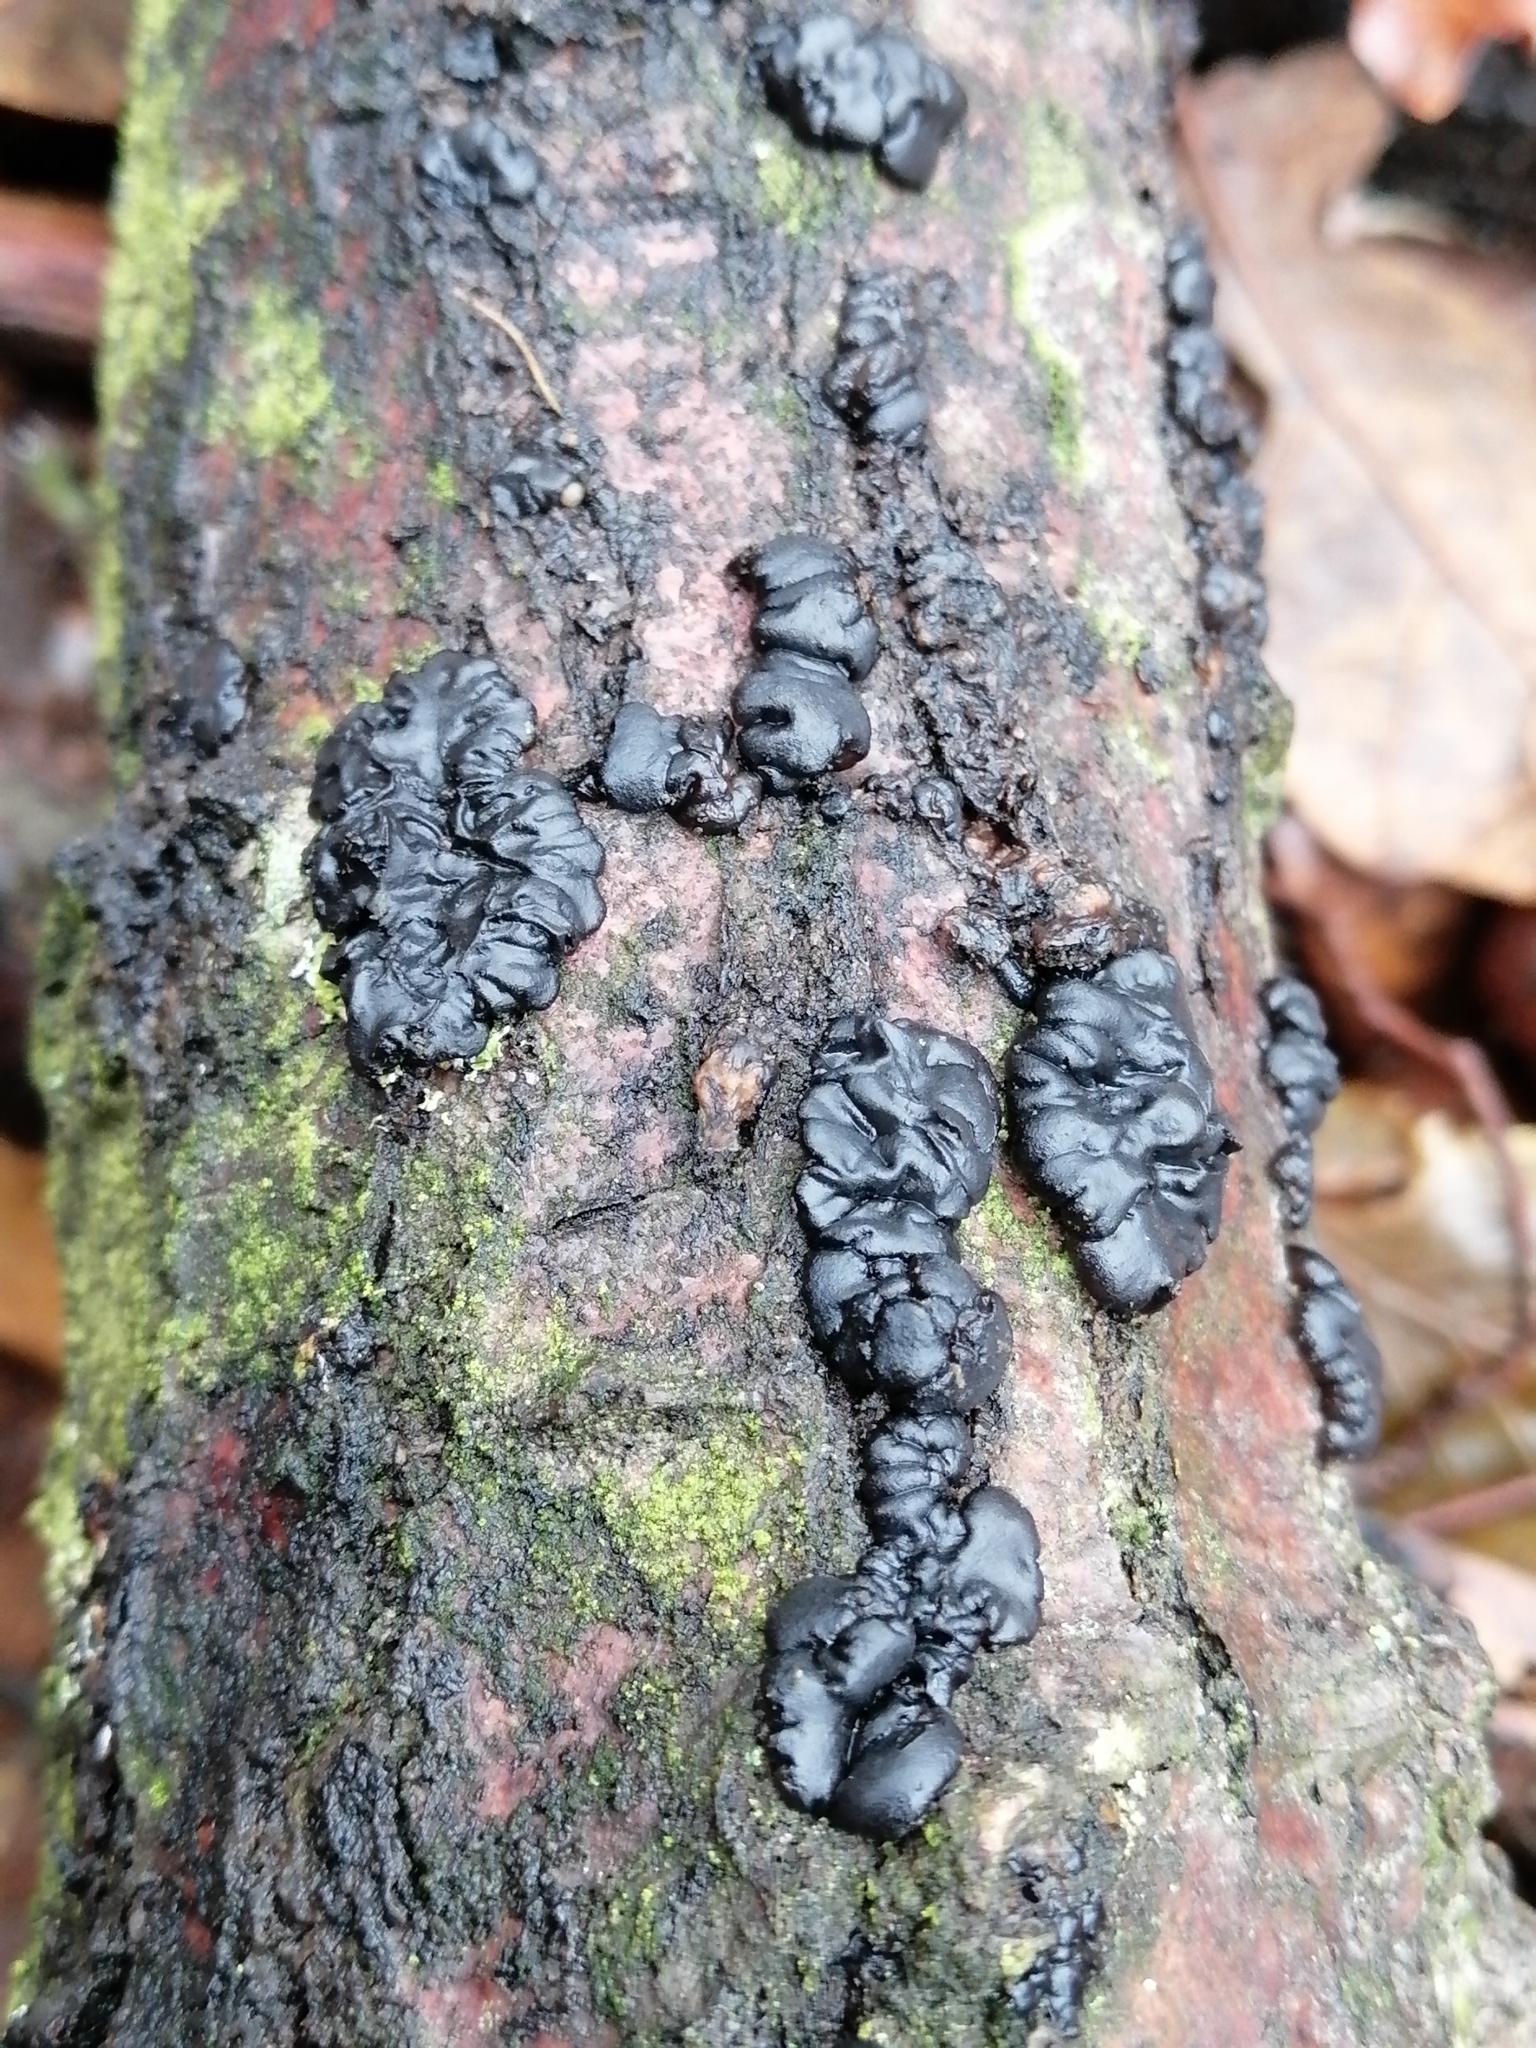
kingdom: Fungi
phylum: Basidiomycota
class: Agaricomycetes
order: Auriculariales
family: Auriculariaceae
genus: Exidia
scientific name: Exidia nigricans
